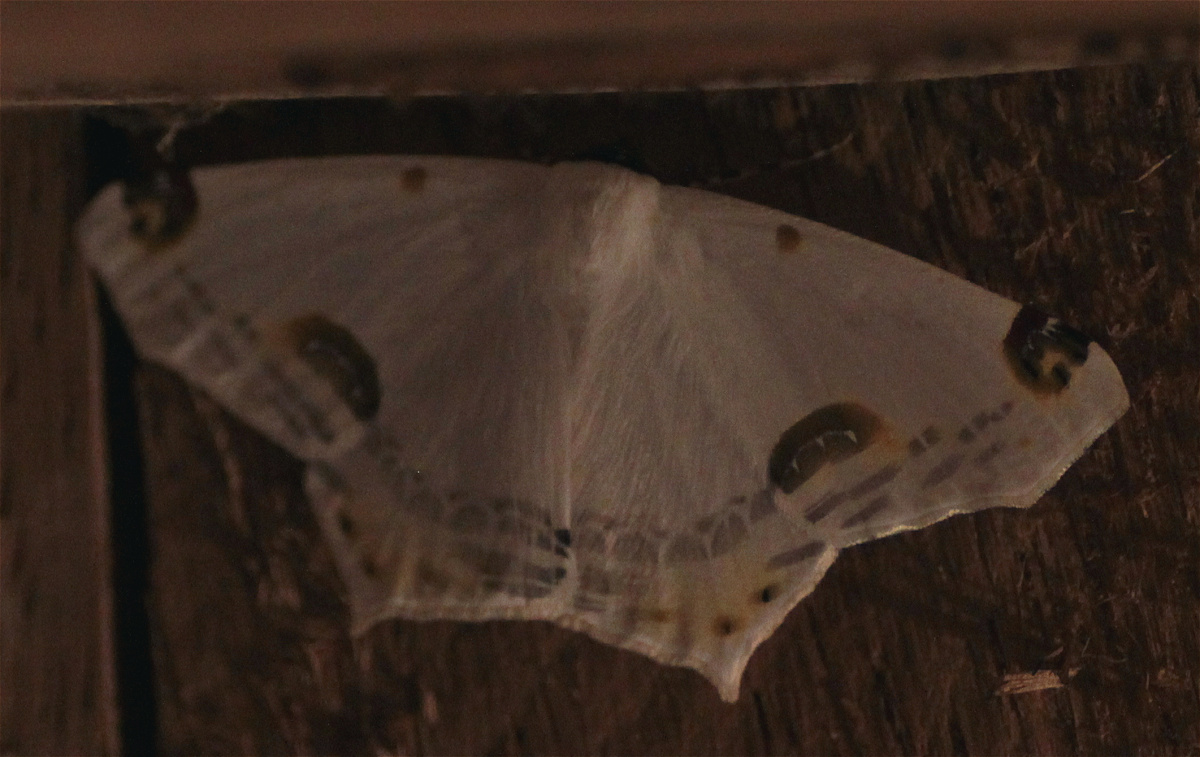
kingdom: Animalia
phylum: Arthropoda
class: Insecta
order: Lepidoptera
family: Geometridae
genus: Sericoptera
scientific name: Sericoptera mahometaria
